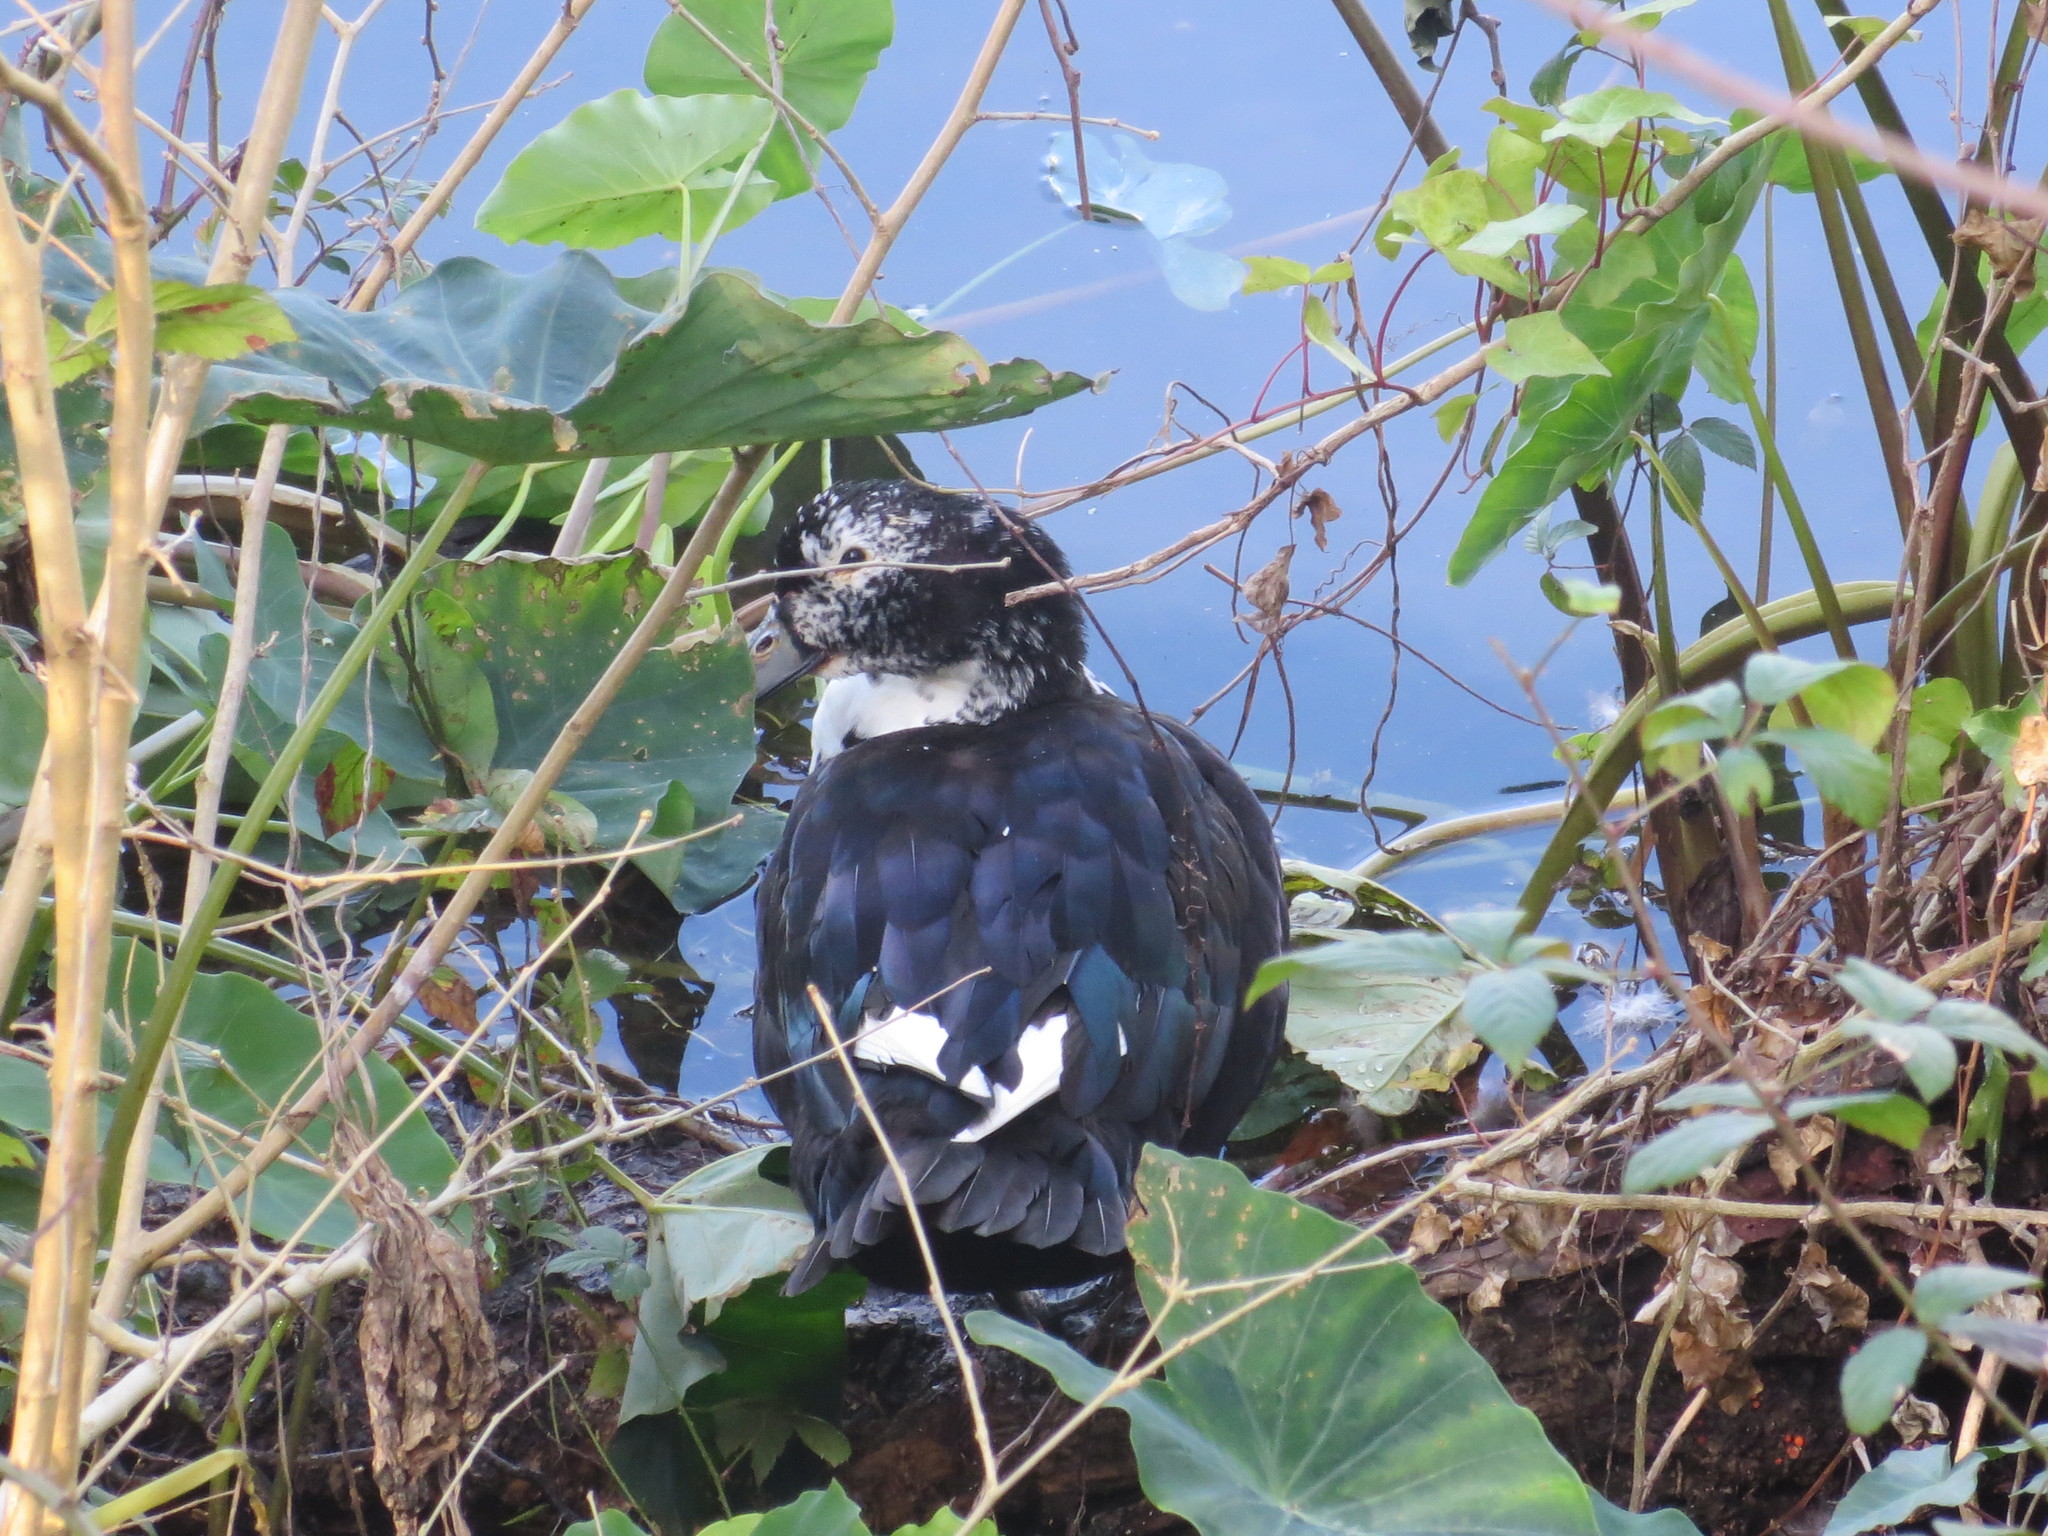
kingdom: Animalia
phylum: Chordata
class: Aves
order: Anseriformes
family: Anatidae
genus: Cairina
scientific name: Cairina moschata
